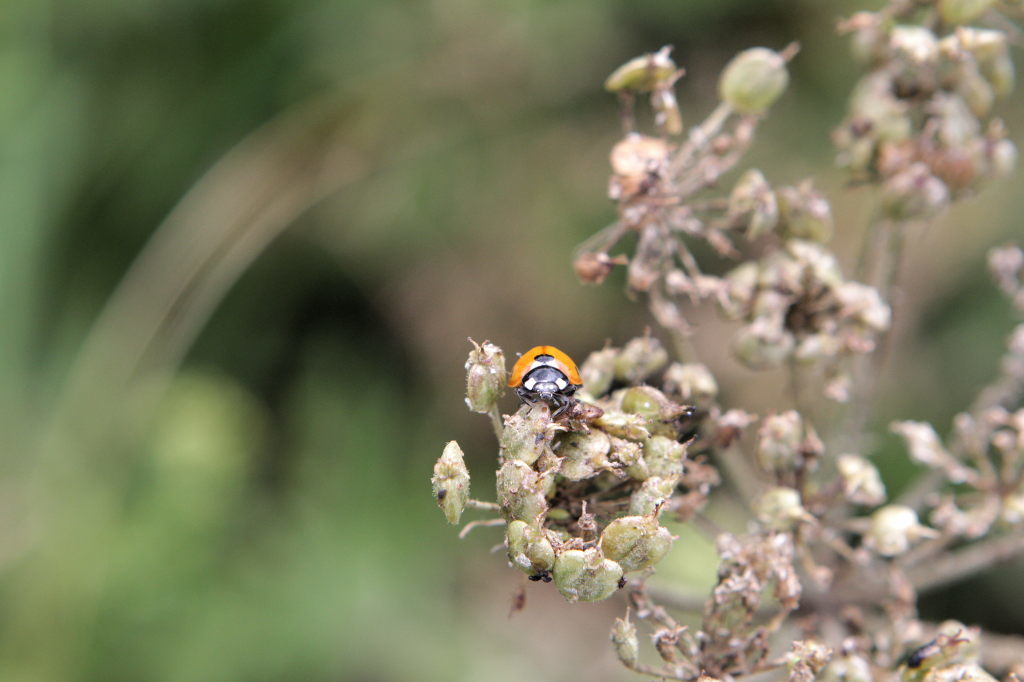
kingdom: Animalia
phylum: Arthropoda
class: Insecta
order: Coleoptera
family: Coccinellidae
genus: Coccinella
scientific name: Coccinella septempunctata
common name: Sevenspotted lady beetle
